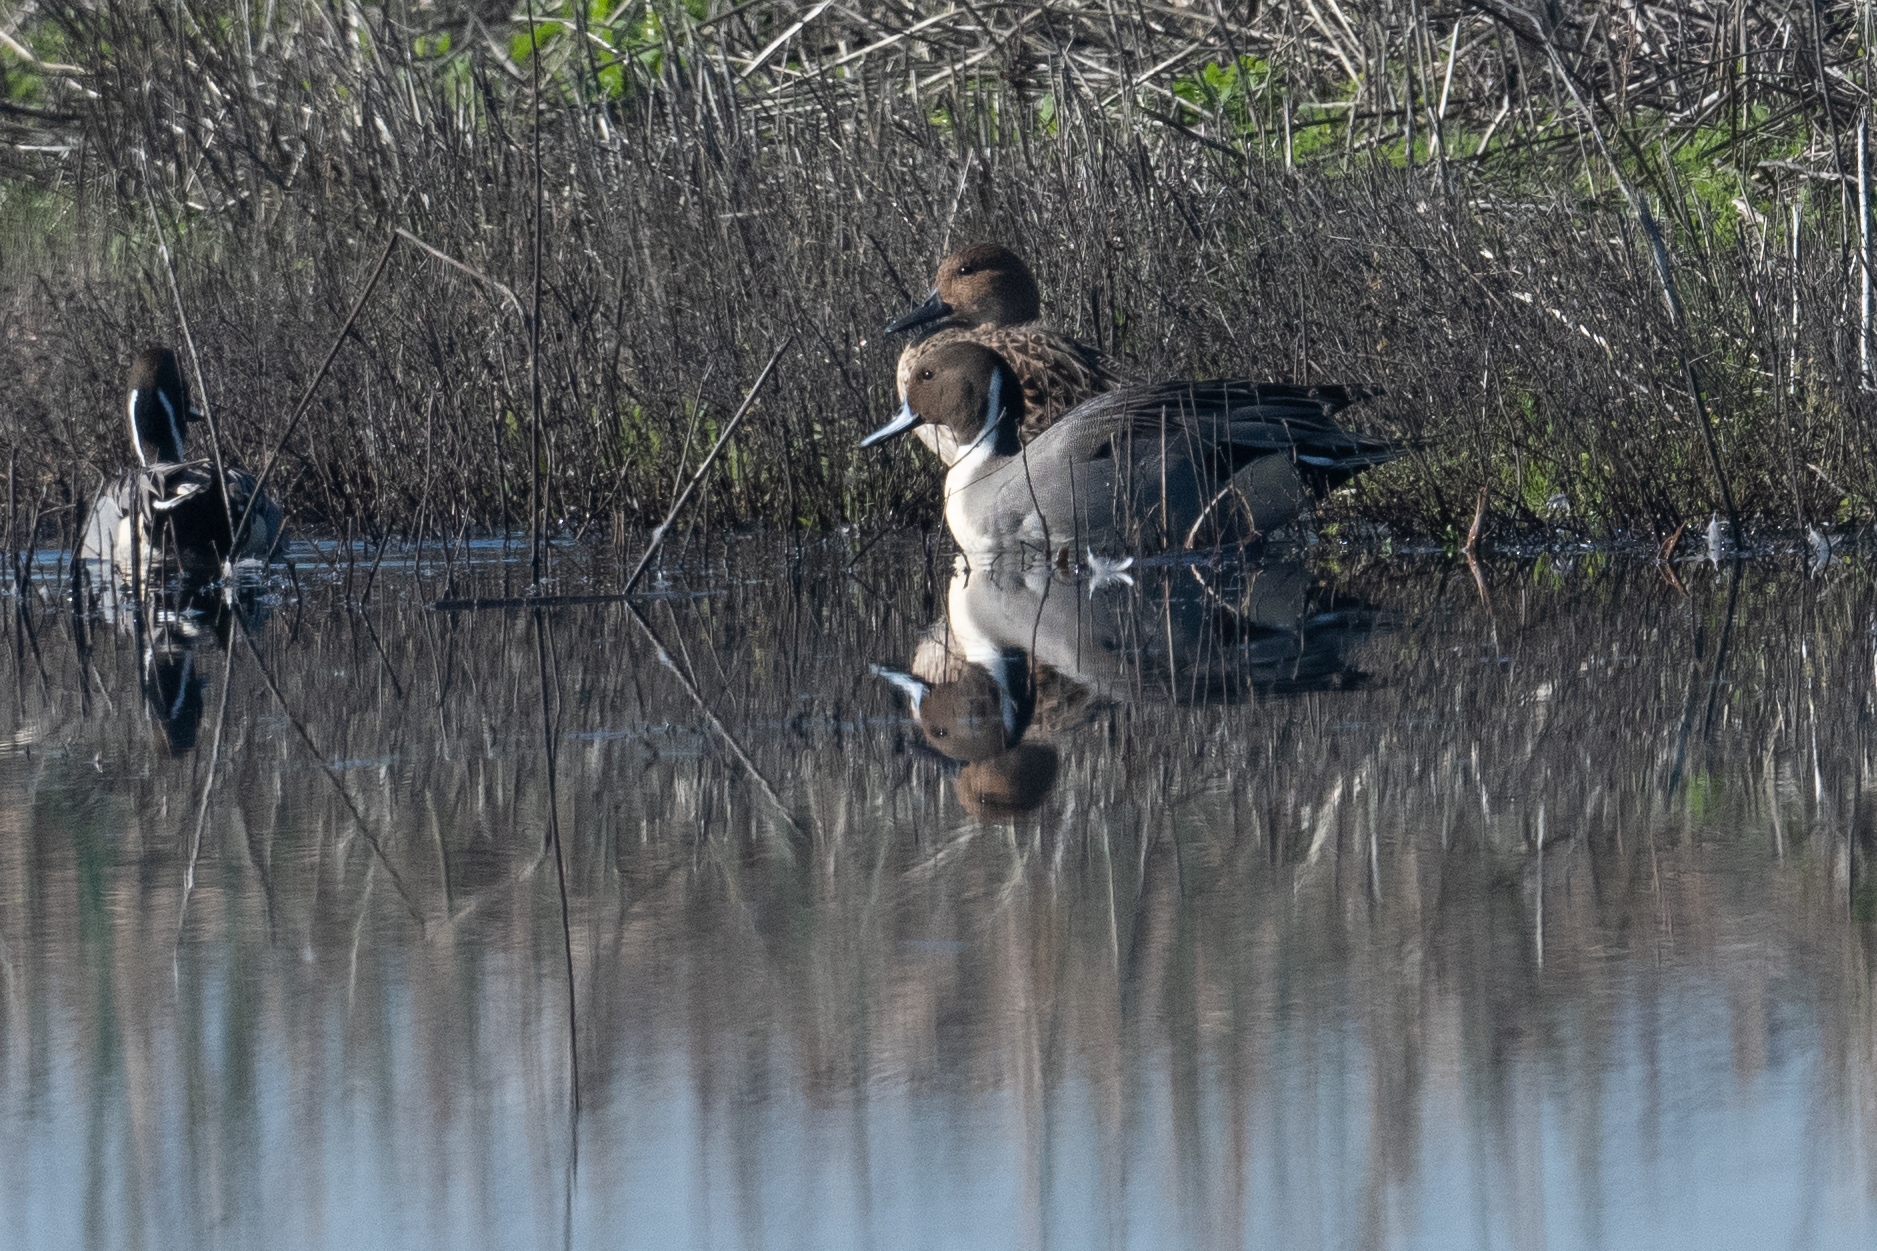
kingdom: Animalia
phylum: Chordata
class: Aves
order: Anseriformes
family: Anatidae
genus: Anas
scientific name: Anas acuta
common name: Northern pintail
